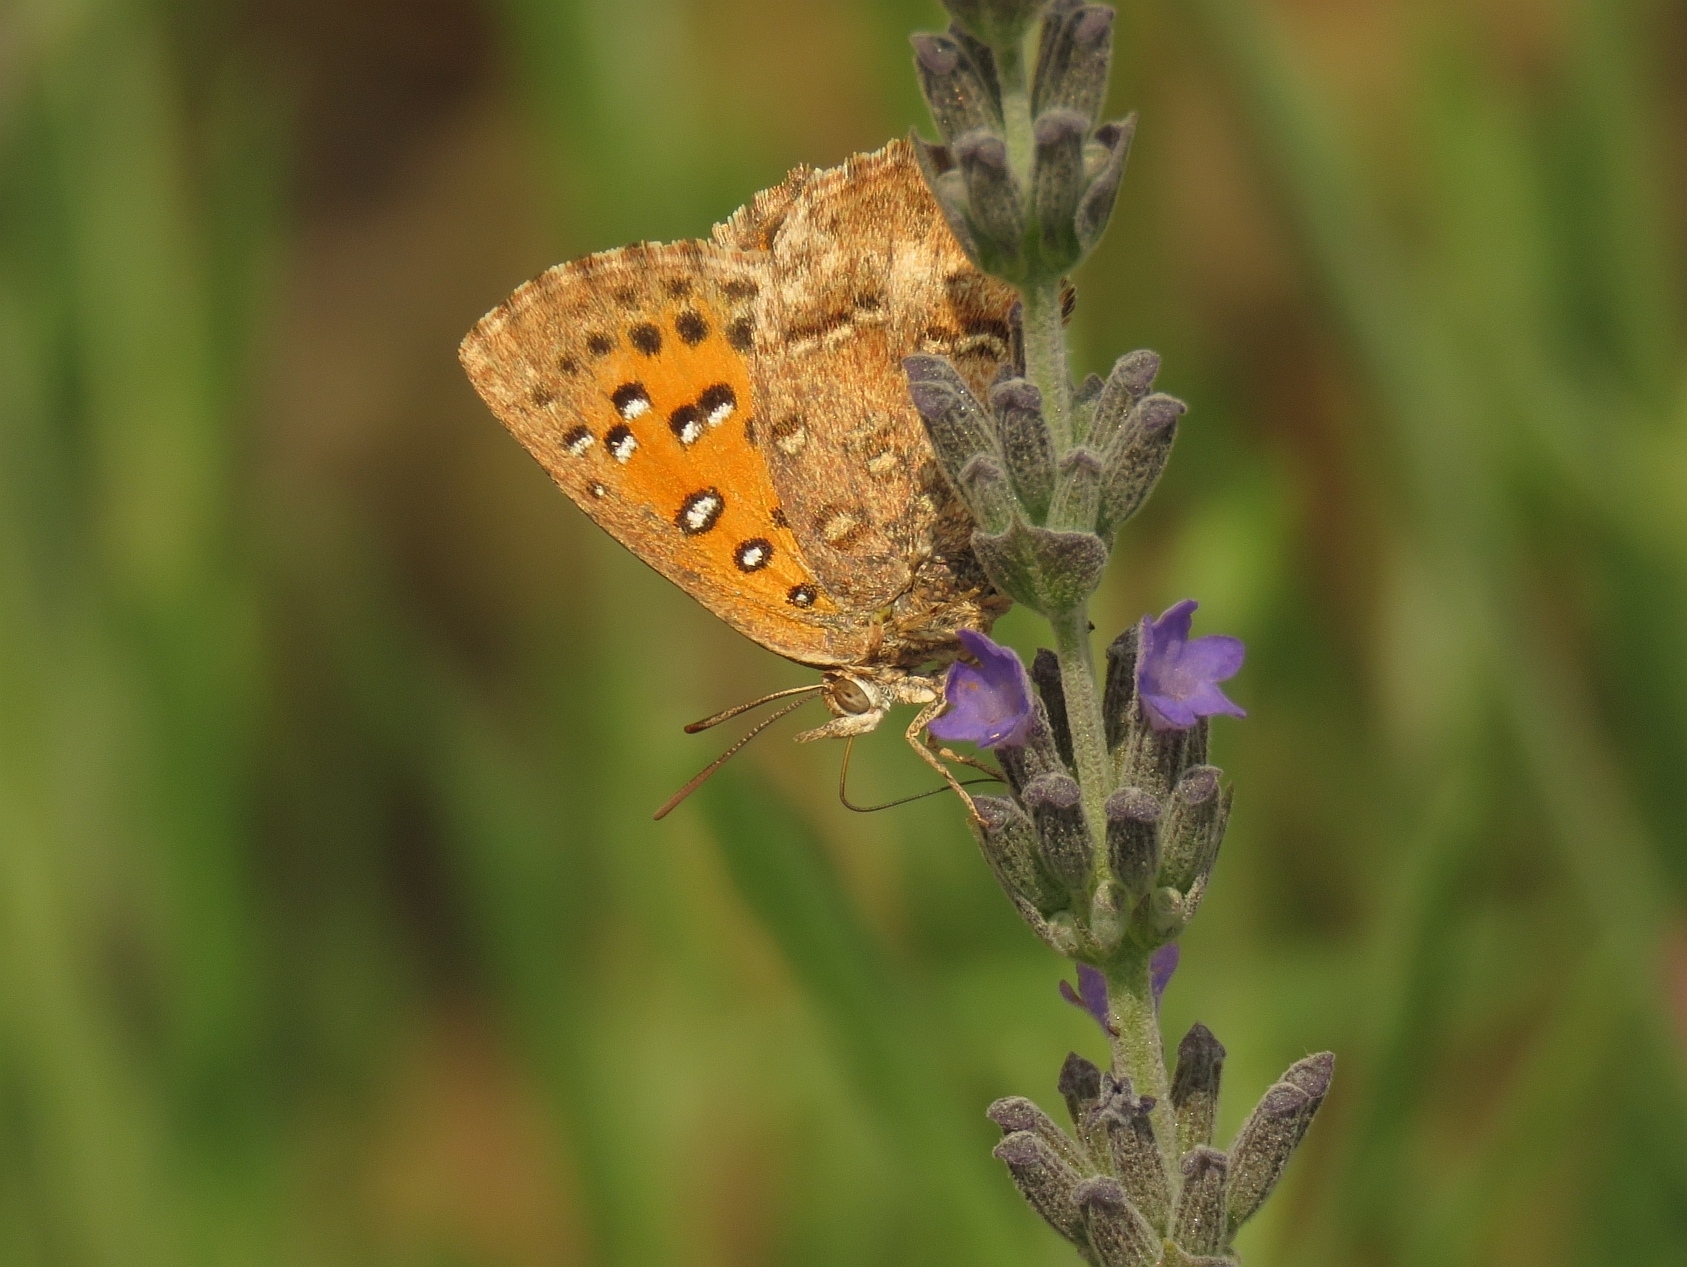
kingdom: Animalia
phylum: Arthropoda
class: Insecta
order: Lepidoptera
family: Lycaenidae
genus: Aloeides
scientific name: Aloeides pierus
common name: Dull copper
